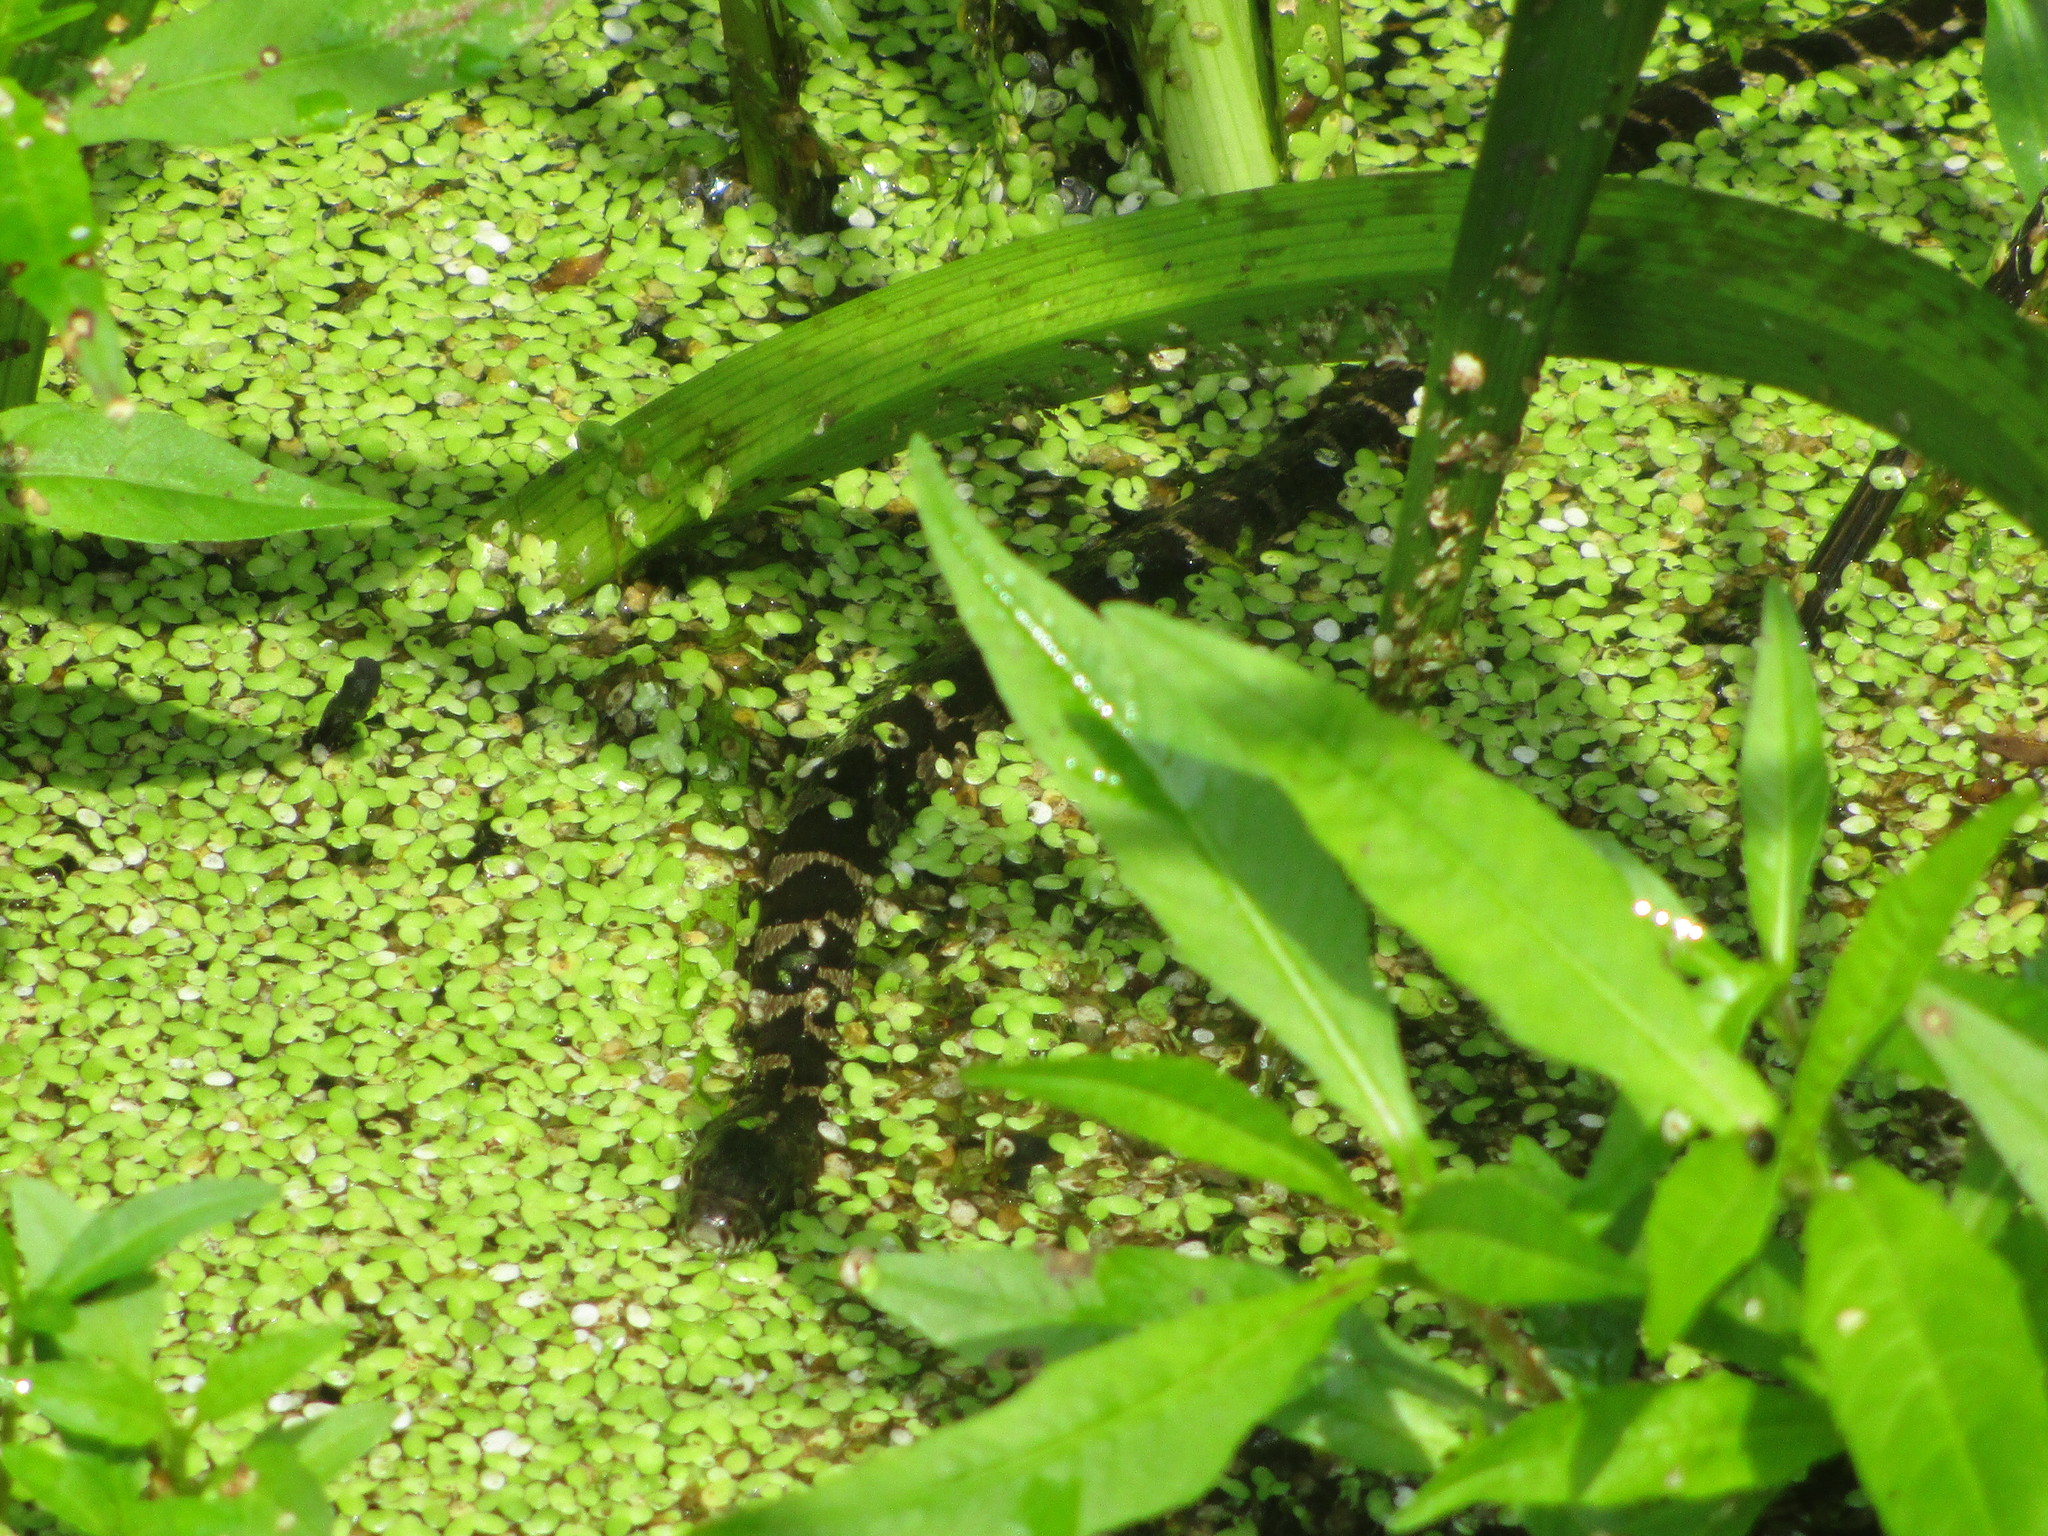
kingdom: Animalia
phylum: Chordata
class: Squamata
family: Colubridae
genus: Nerodia
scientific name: Nerodia sipedon
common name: Northern water snake
